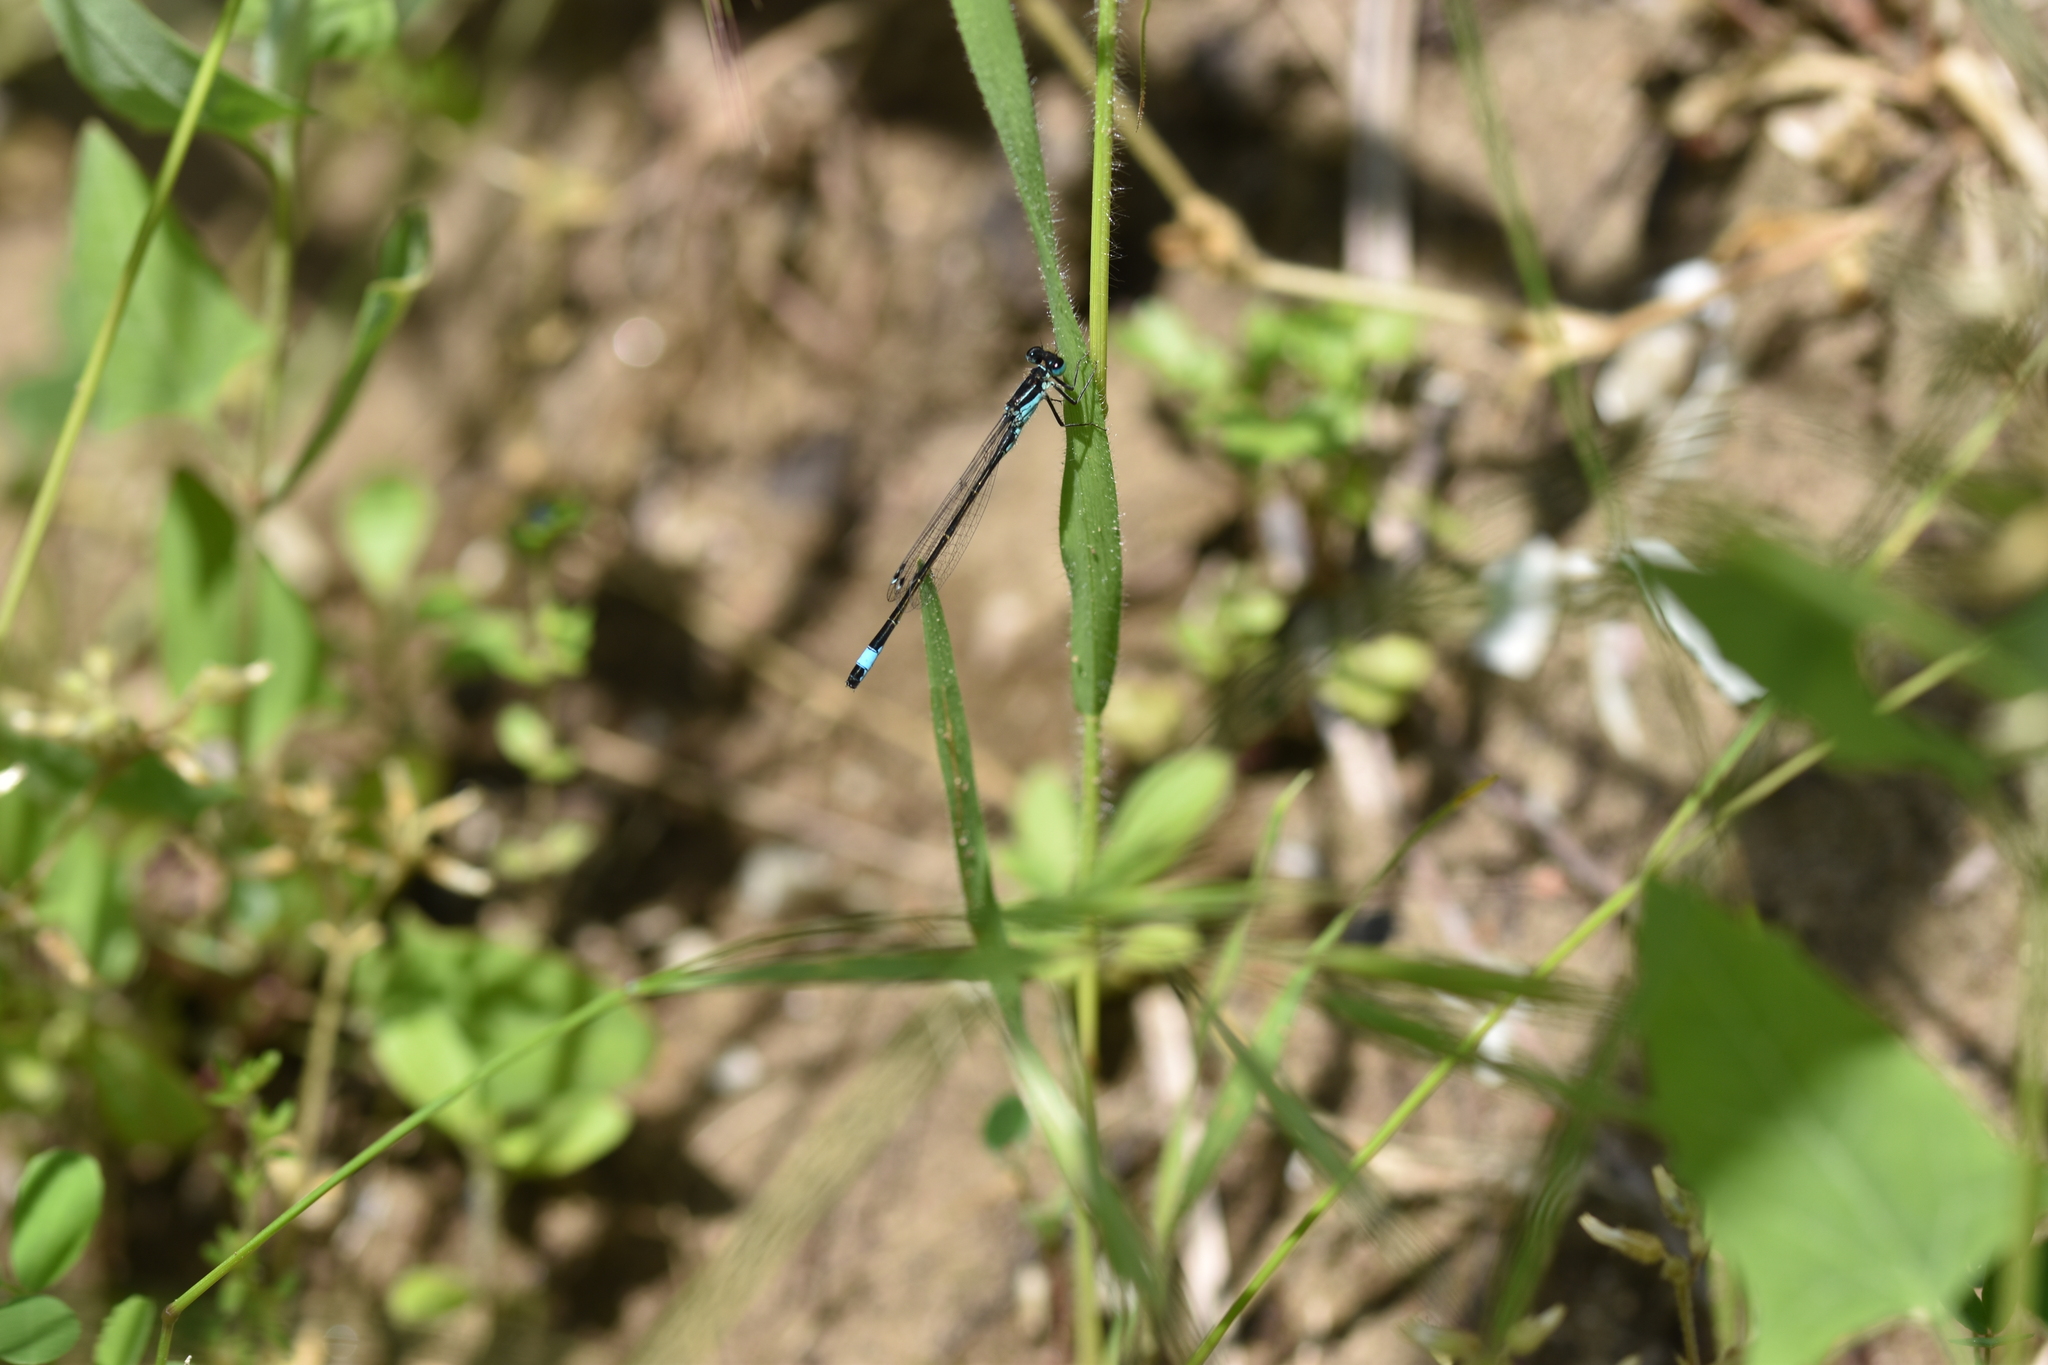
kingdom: Animalia
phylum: Arthropoda
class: Insecta
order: Odonata
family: Coenagrionidae
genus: Ischnura
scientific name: Ischnura elegans
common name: Blue-tailed damselfly
